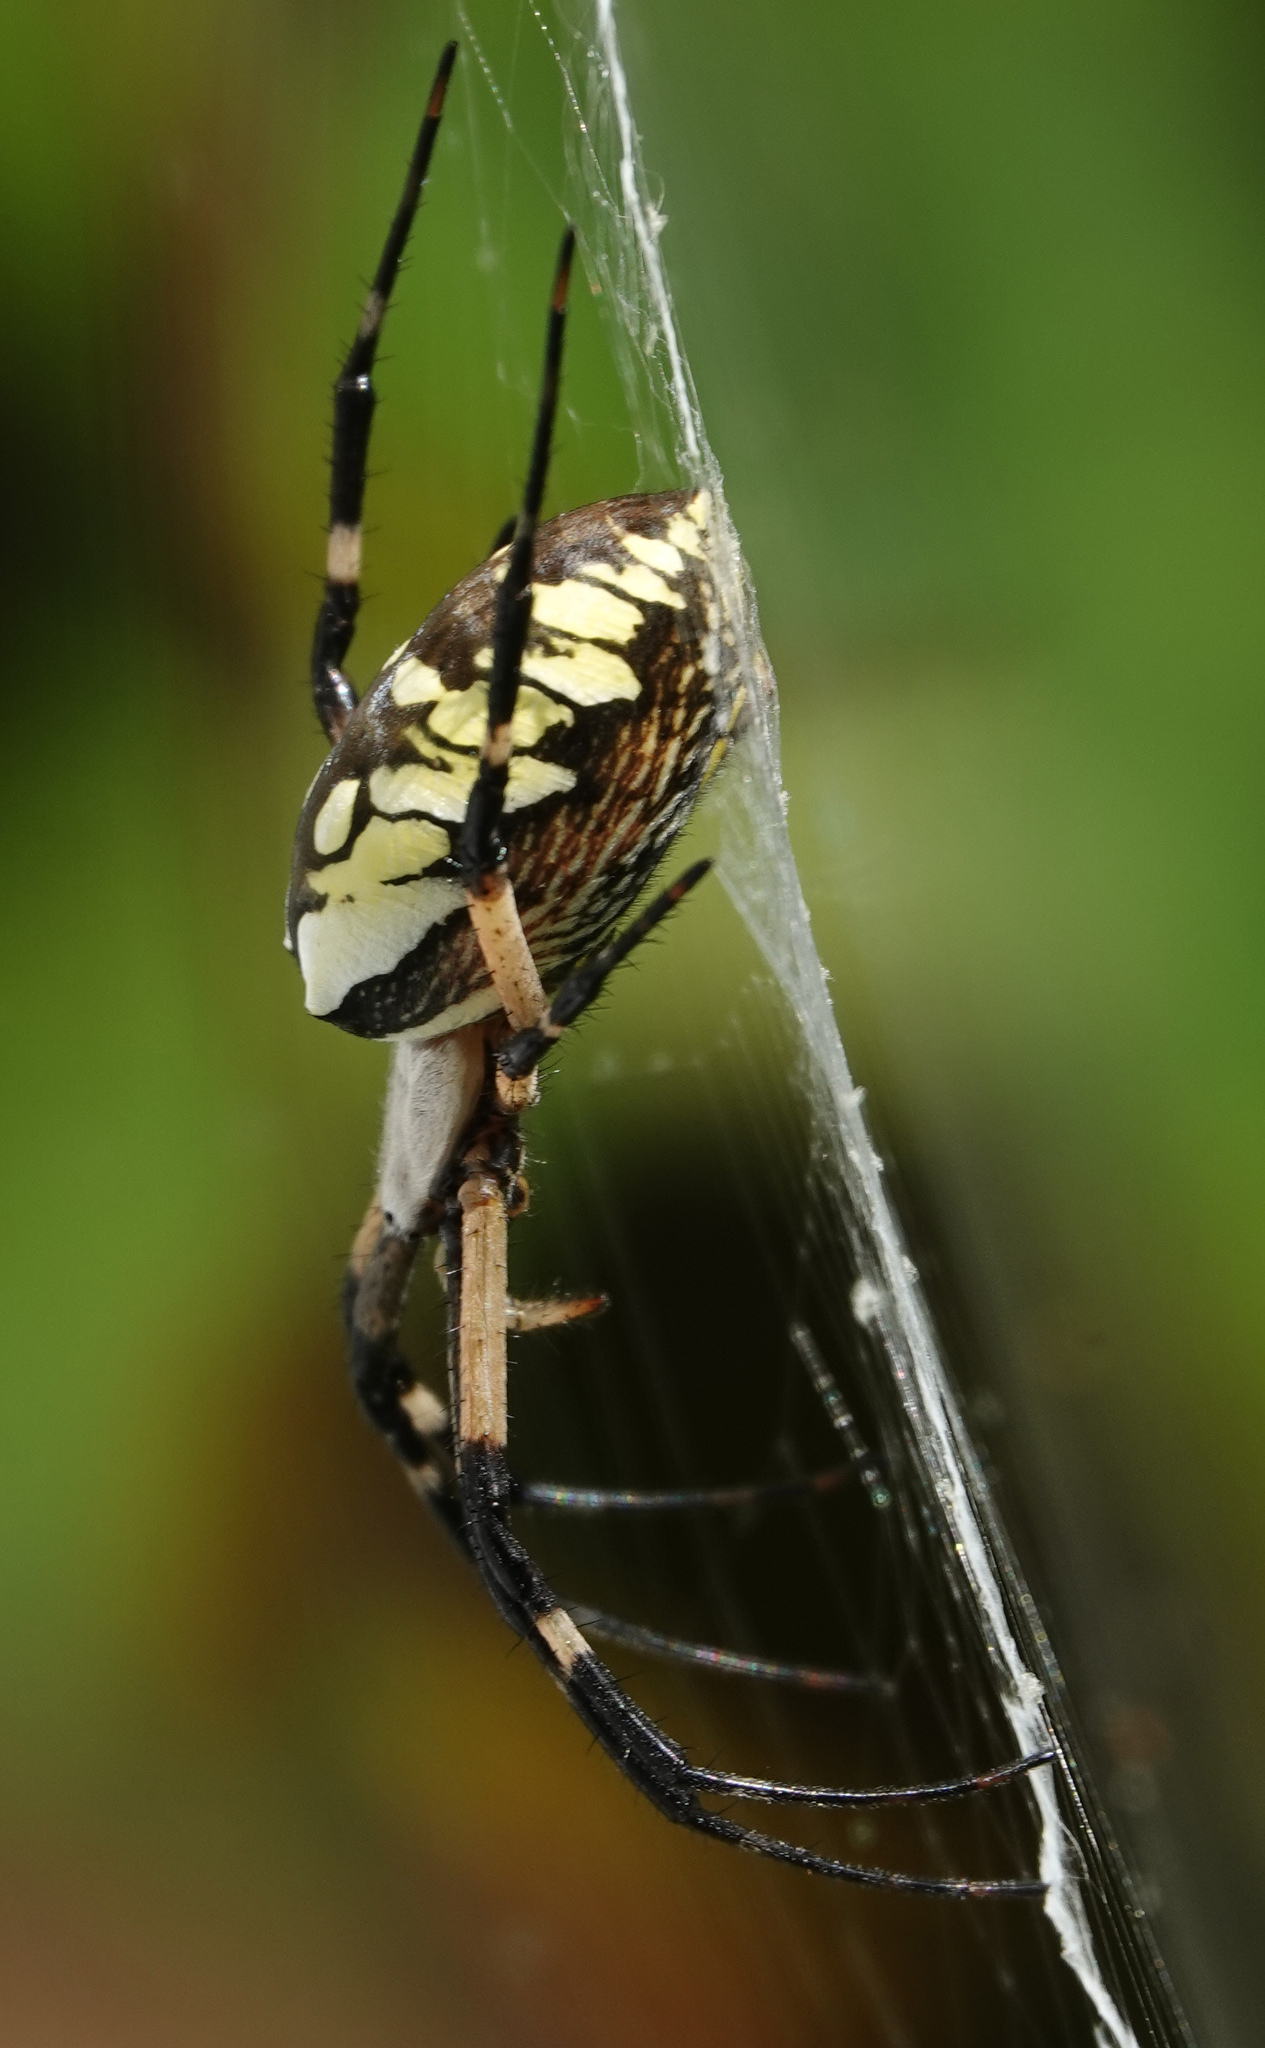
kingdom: Animalia
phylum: Arthropoda
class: Arachnida
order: Araneae
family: Araneidae
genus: Argiope
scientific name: Argiope aurantia
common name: Orb weavers
